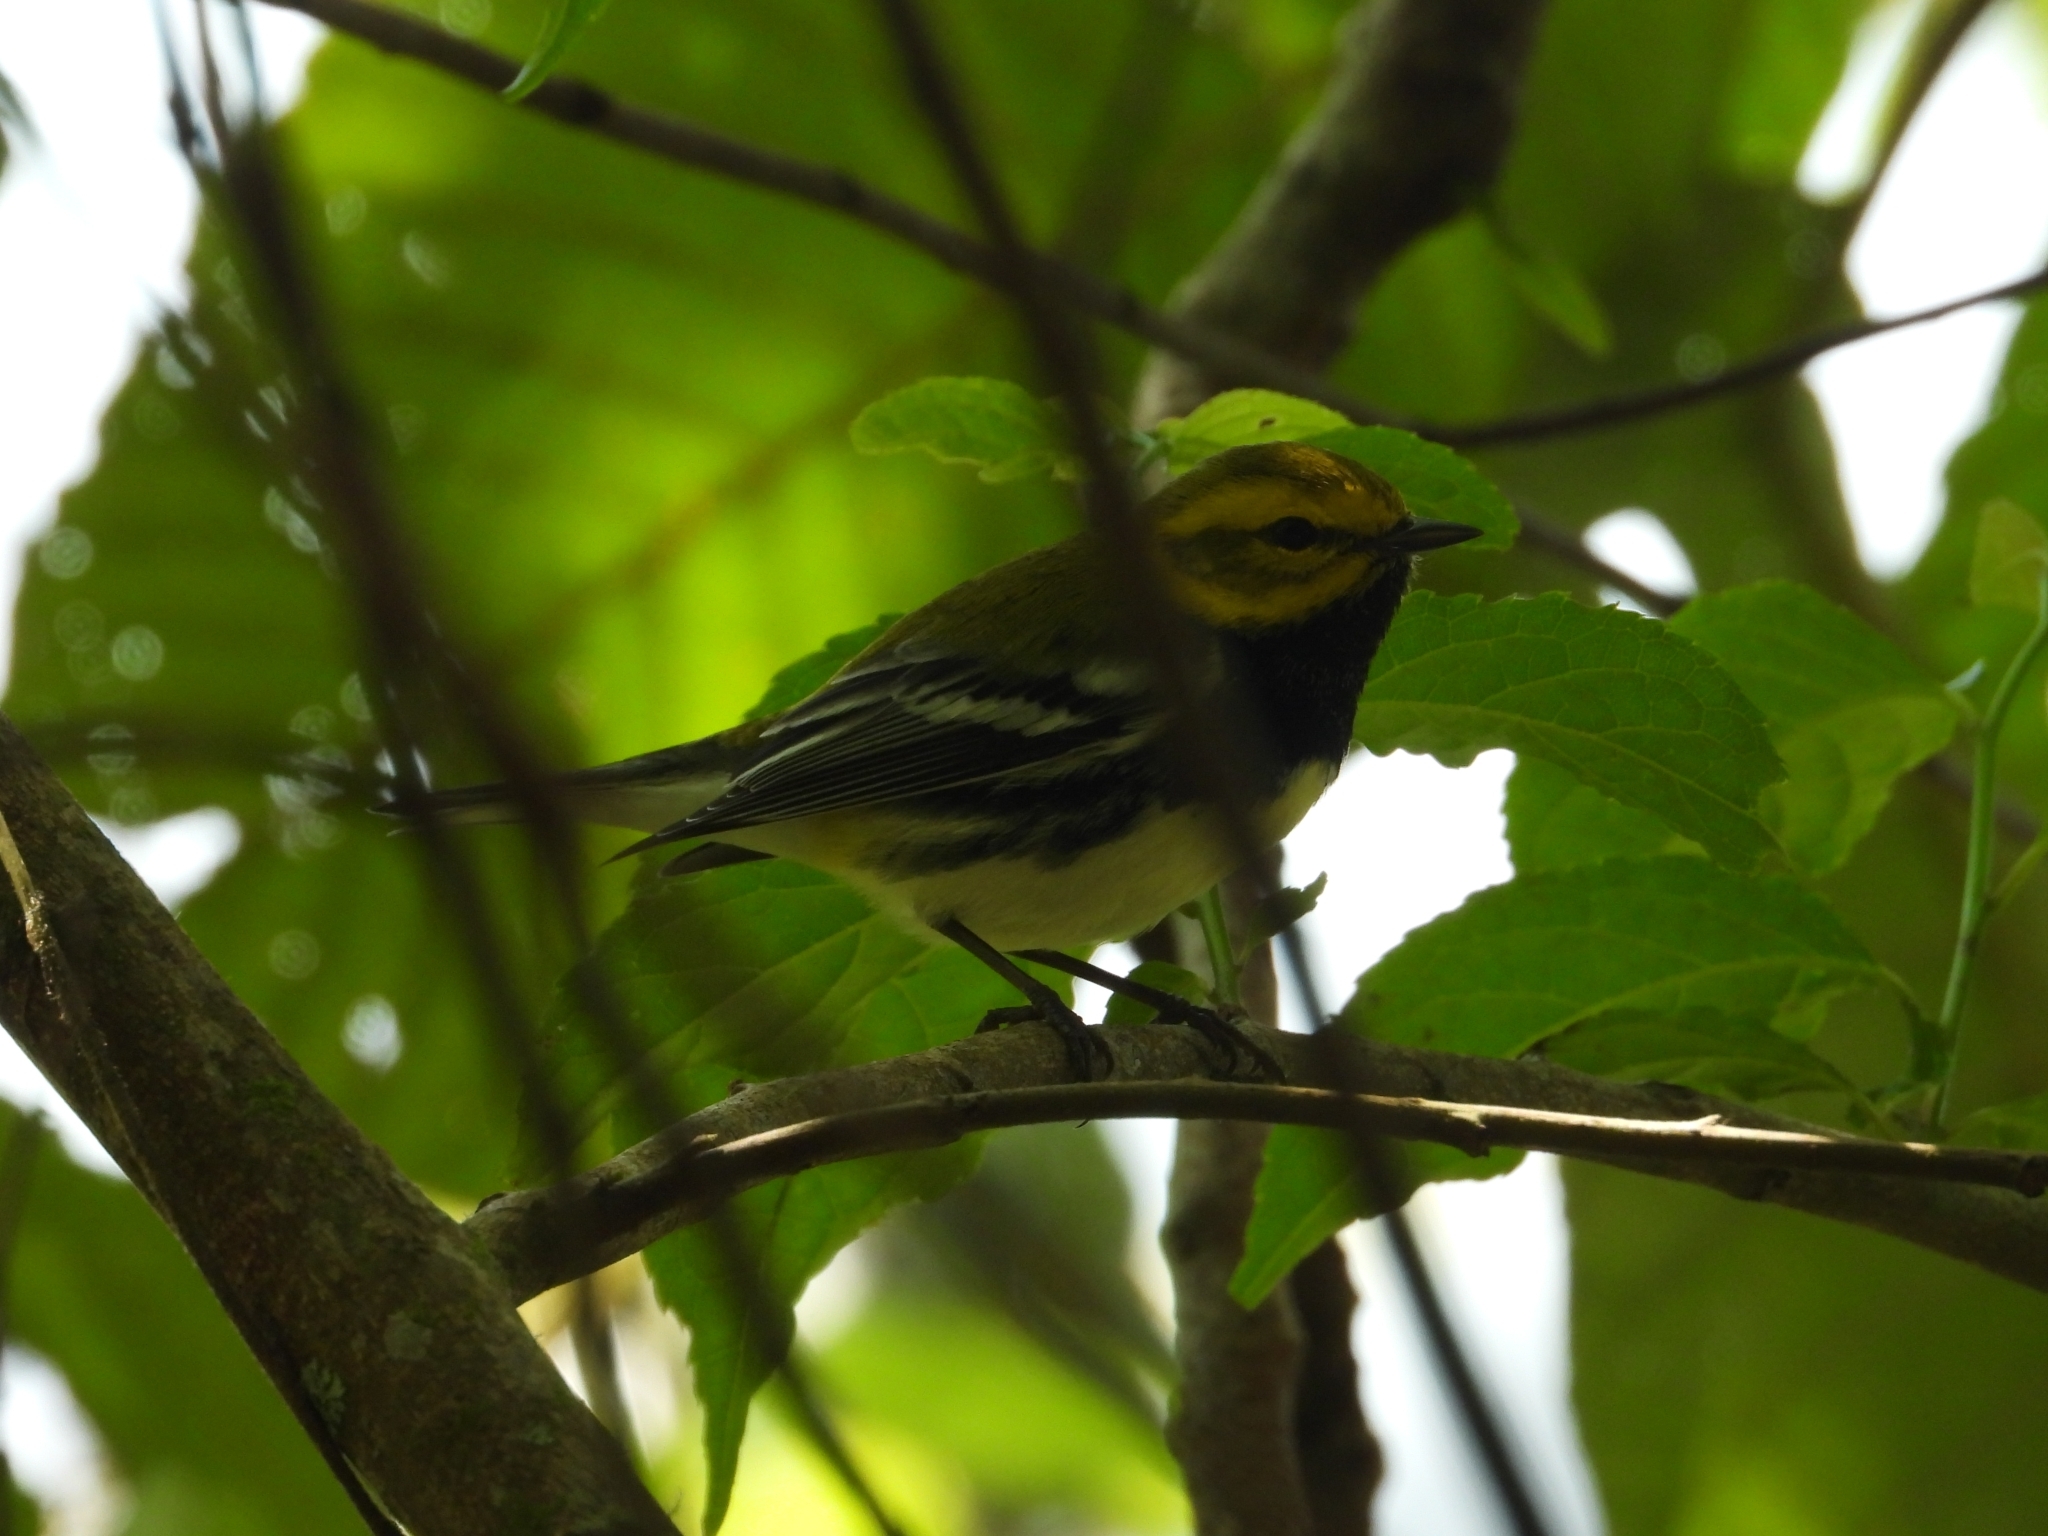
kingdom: Animalia
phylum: Chordata
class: Aves
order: Passeriformes
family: Parulidae
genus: Setophaga
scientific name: Setophaga virens
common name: Black-throated green warbler
